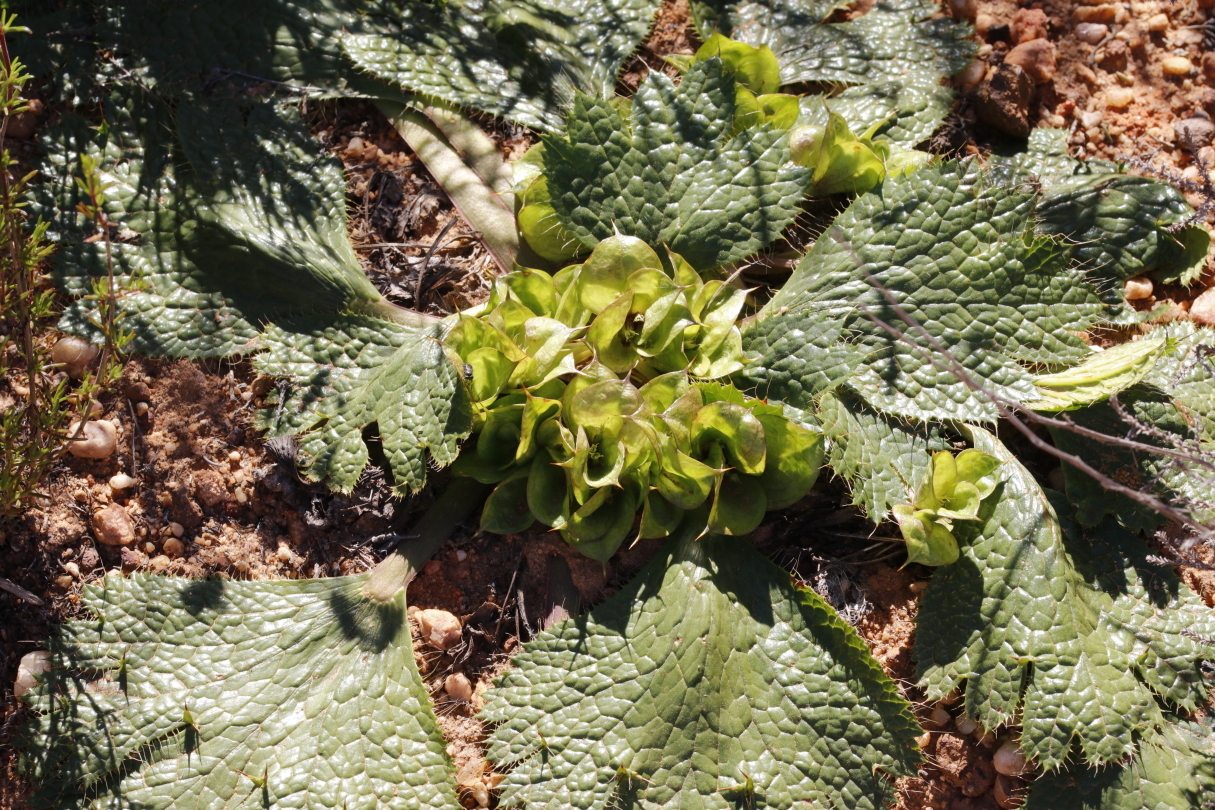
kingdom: Plantae
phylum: Tracheophyta
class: Magnoliopsida
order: Apiales
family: Apiaceae
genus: Arctopus
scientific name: Arctopus monacanthus
